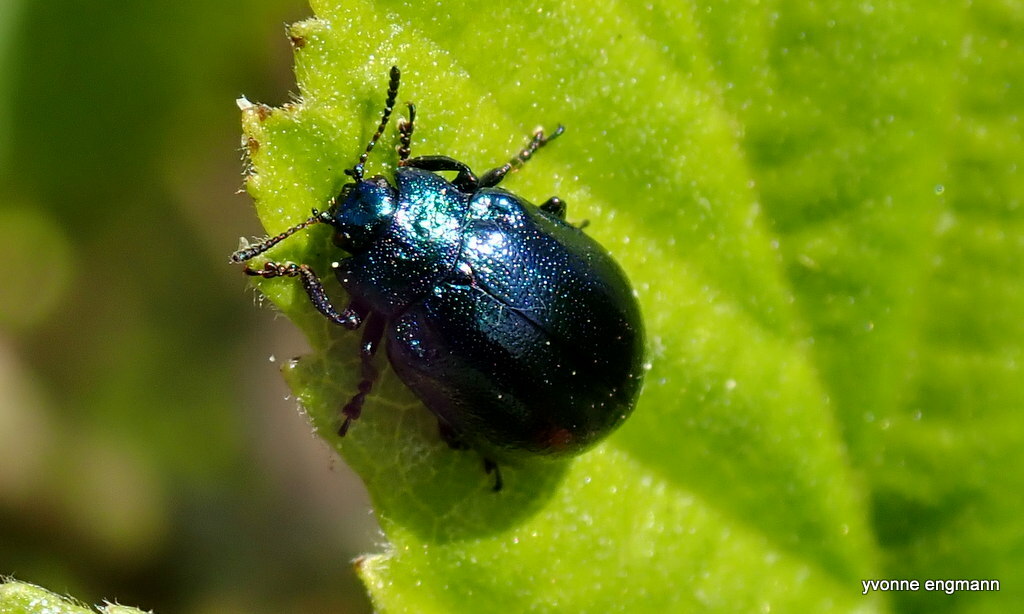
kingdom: Animalia
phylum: Arthropoda
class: Insecta
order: Coleoptera
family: Chrysomelidae
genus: Plagiosterna
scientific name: Plagiosterna aenea
